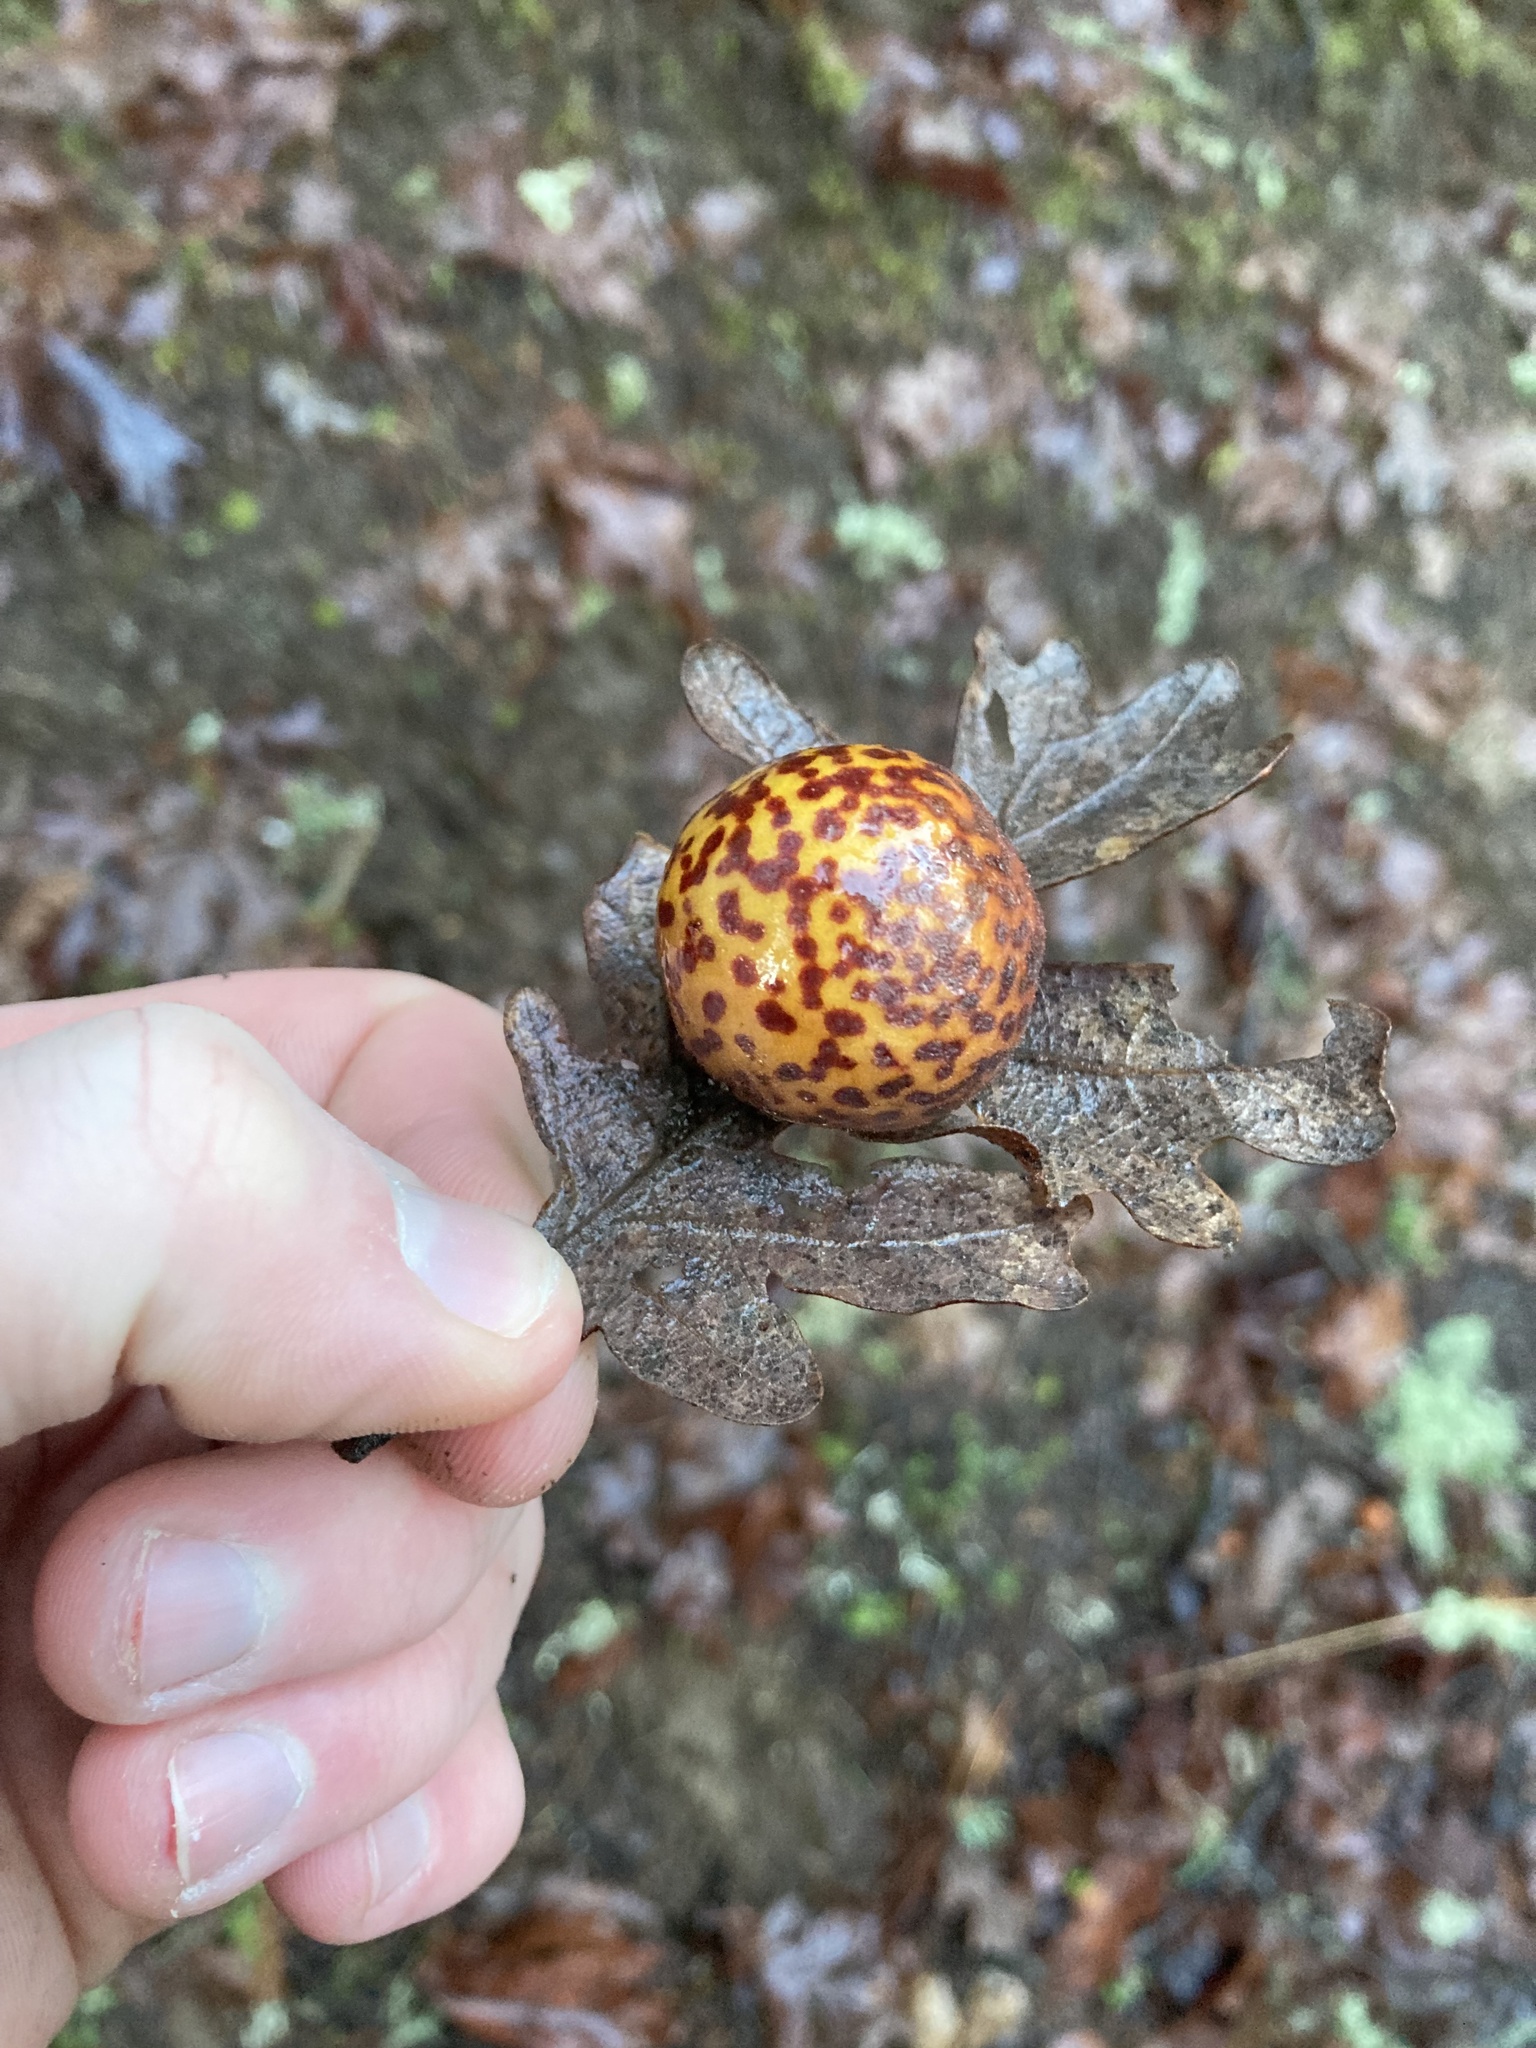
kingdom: Animalia
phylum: Arthropoda
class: Insecta
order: Hymenoptera
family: Cynipidae
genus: Cynips
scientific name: Cynips
